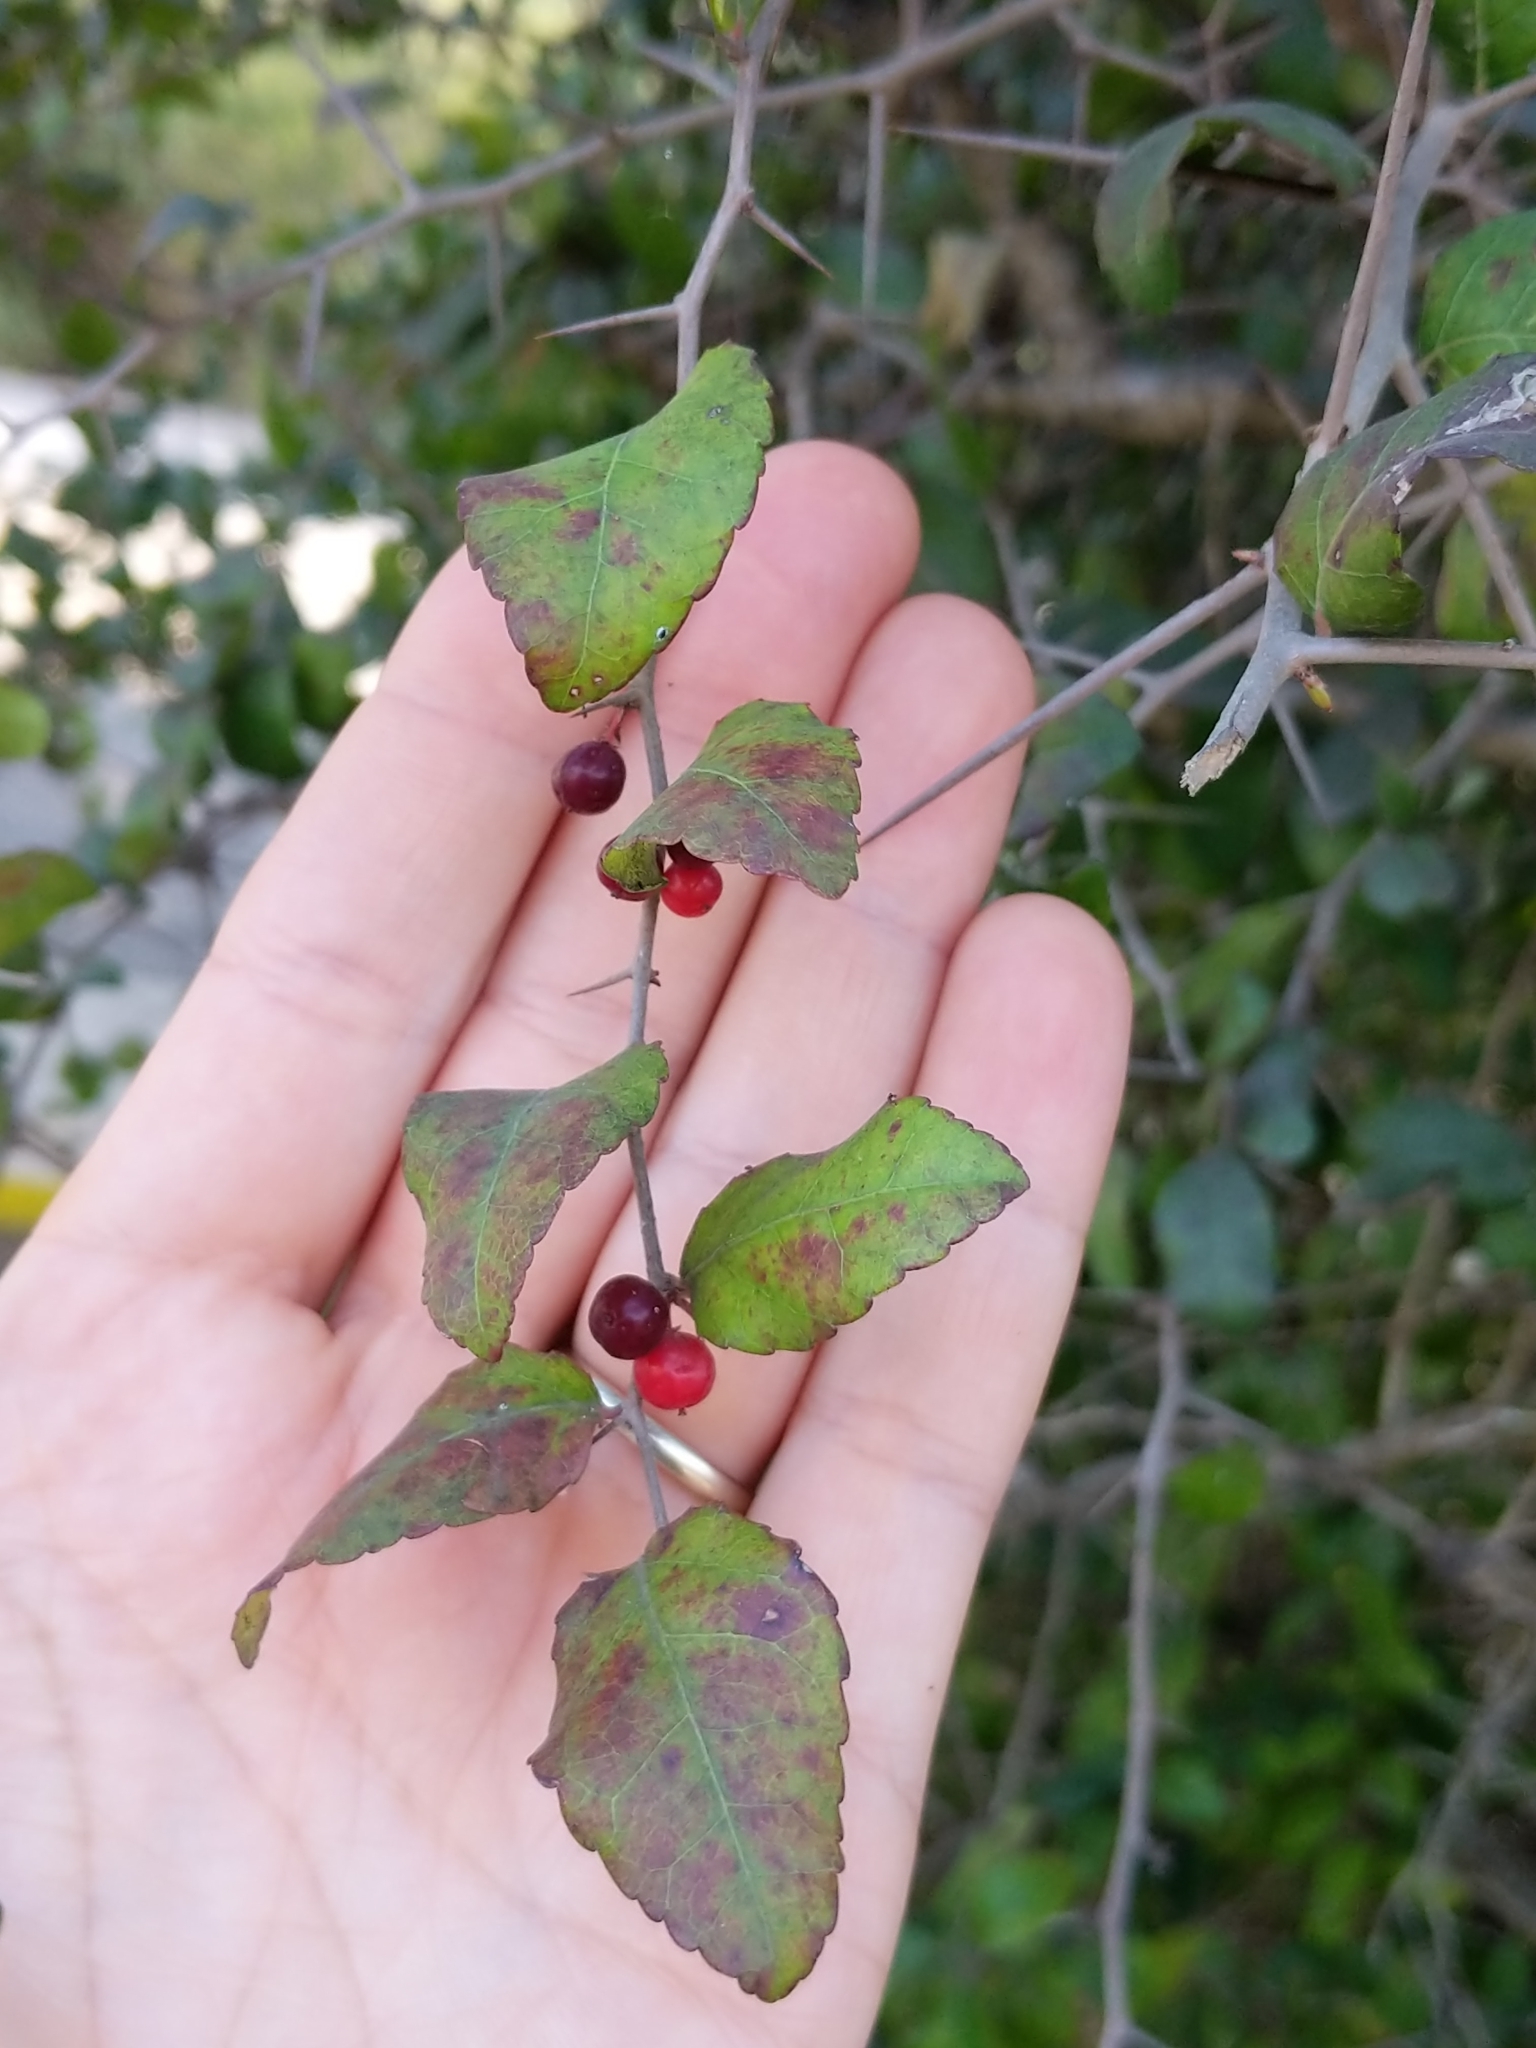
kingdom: Plantae
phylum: Tracheophyta
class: Magnoliopsida
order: Malpighiales
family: Salicaceae
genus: Xylosma
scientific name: Xylosma flexuosa
